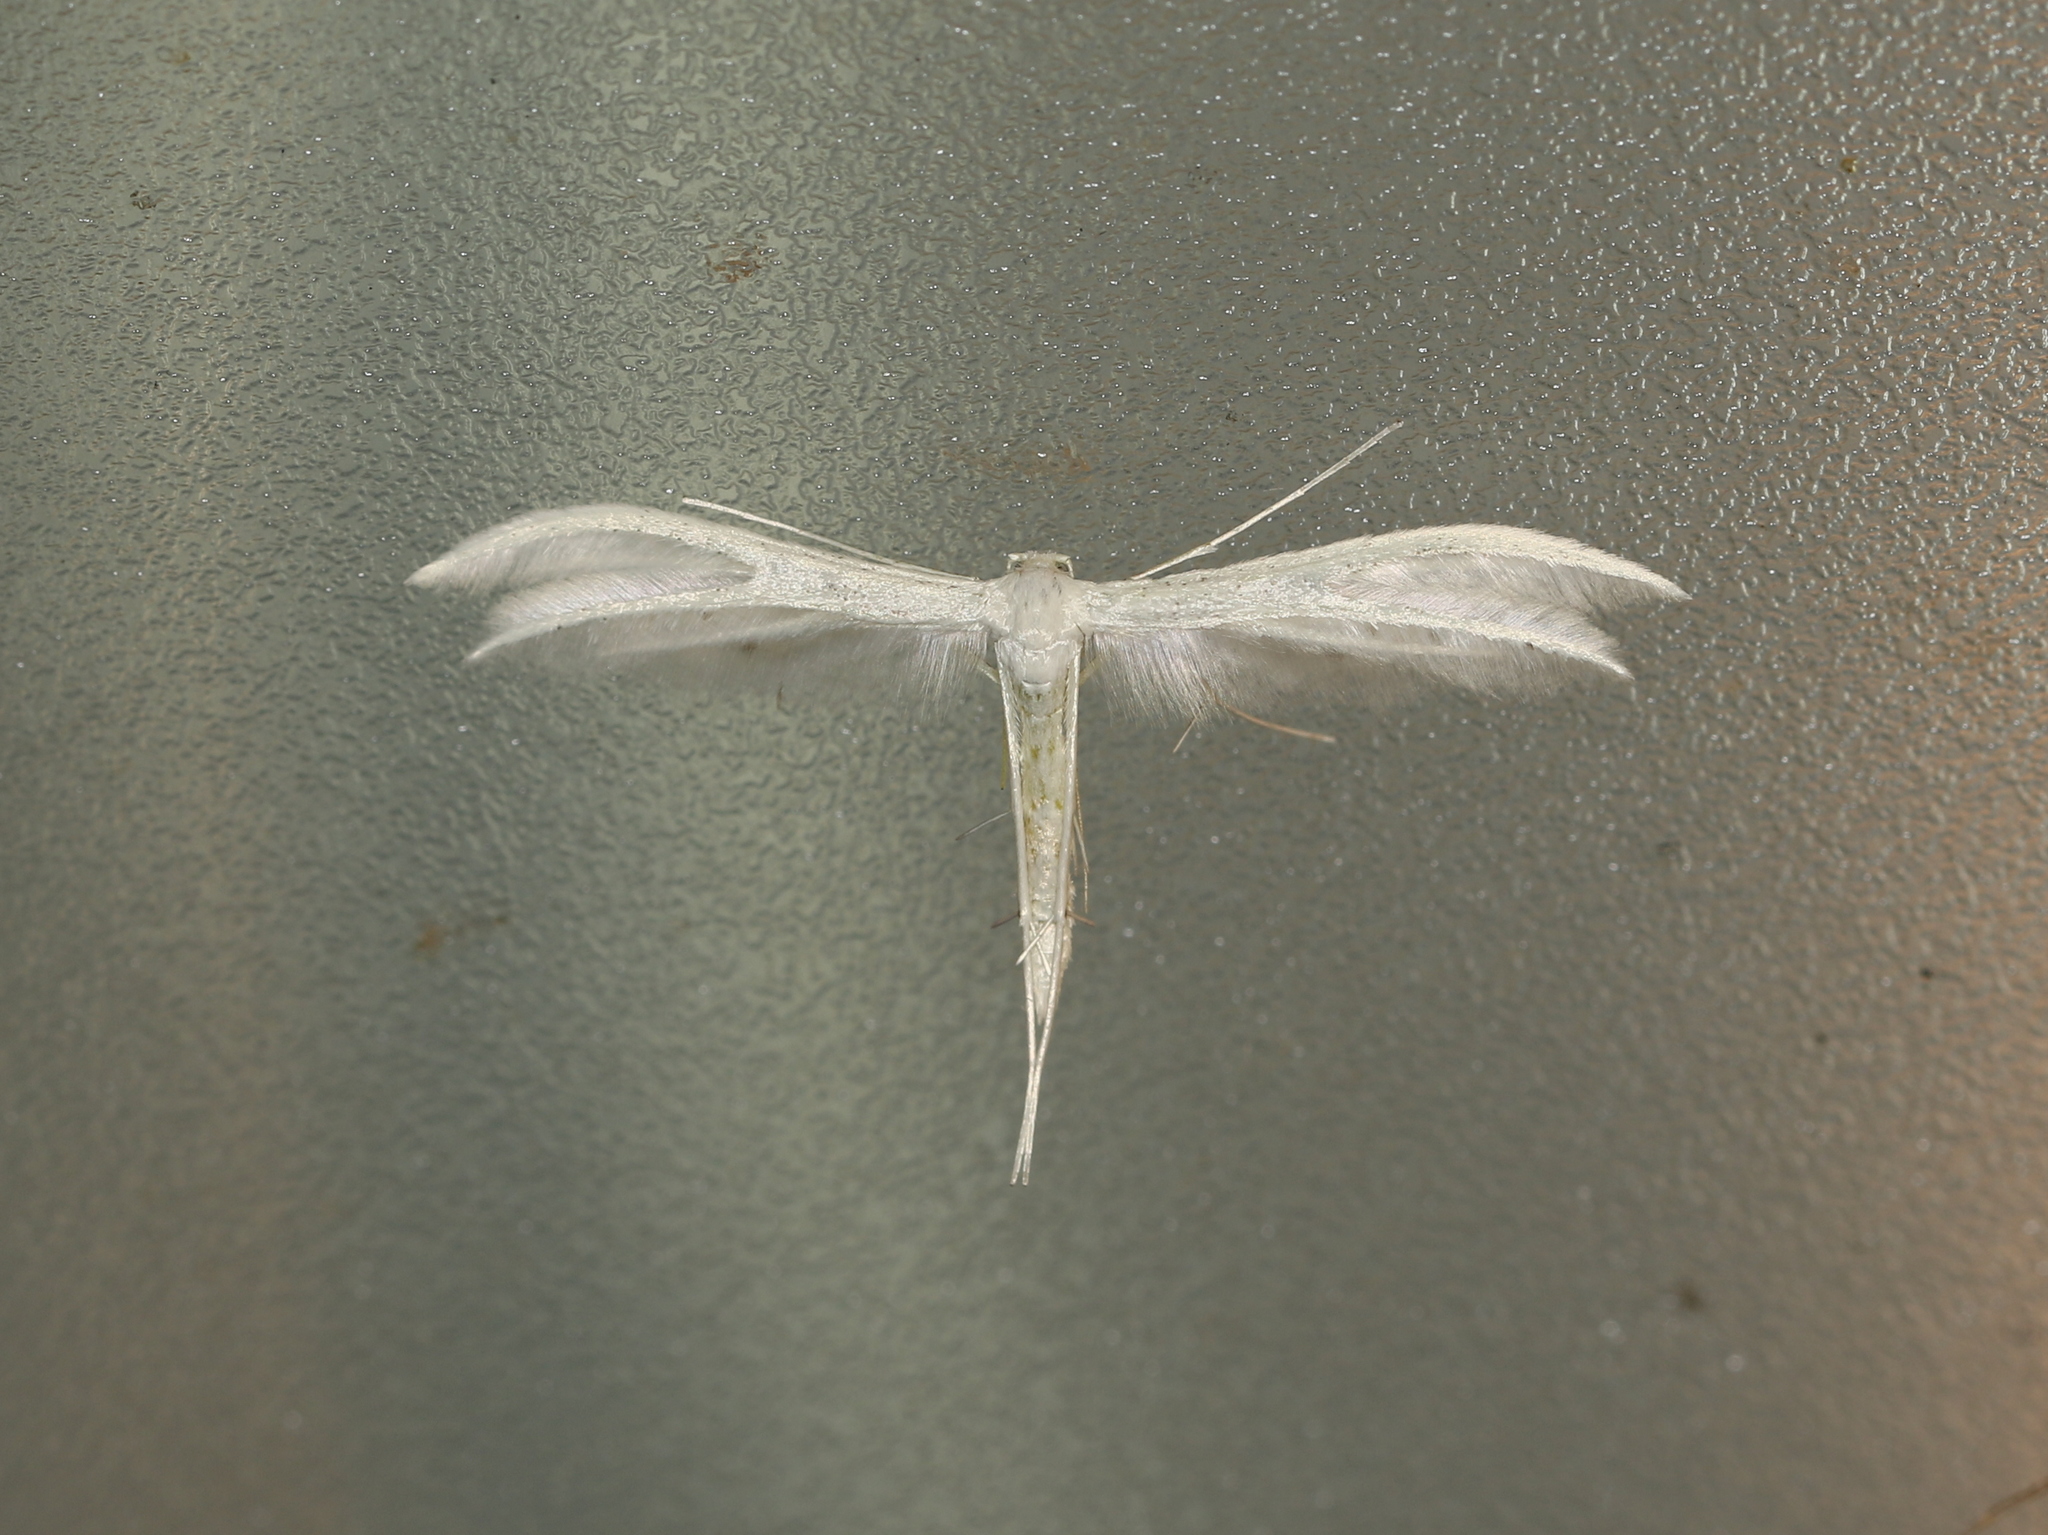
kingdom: Animalia
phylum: Arthropoda
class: Insecta
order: Lepidoptera
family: Pterophoridae
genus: Pterophorus
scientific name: Pterophorus pentadactyla
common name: White plume moth
